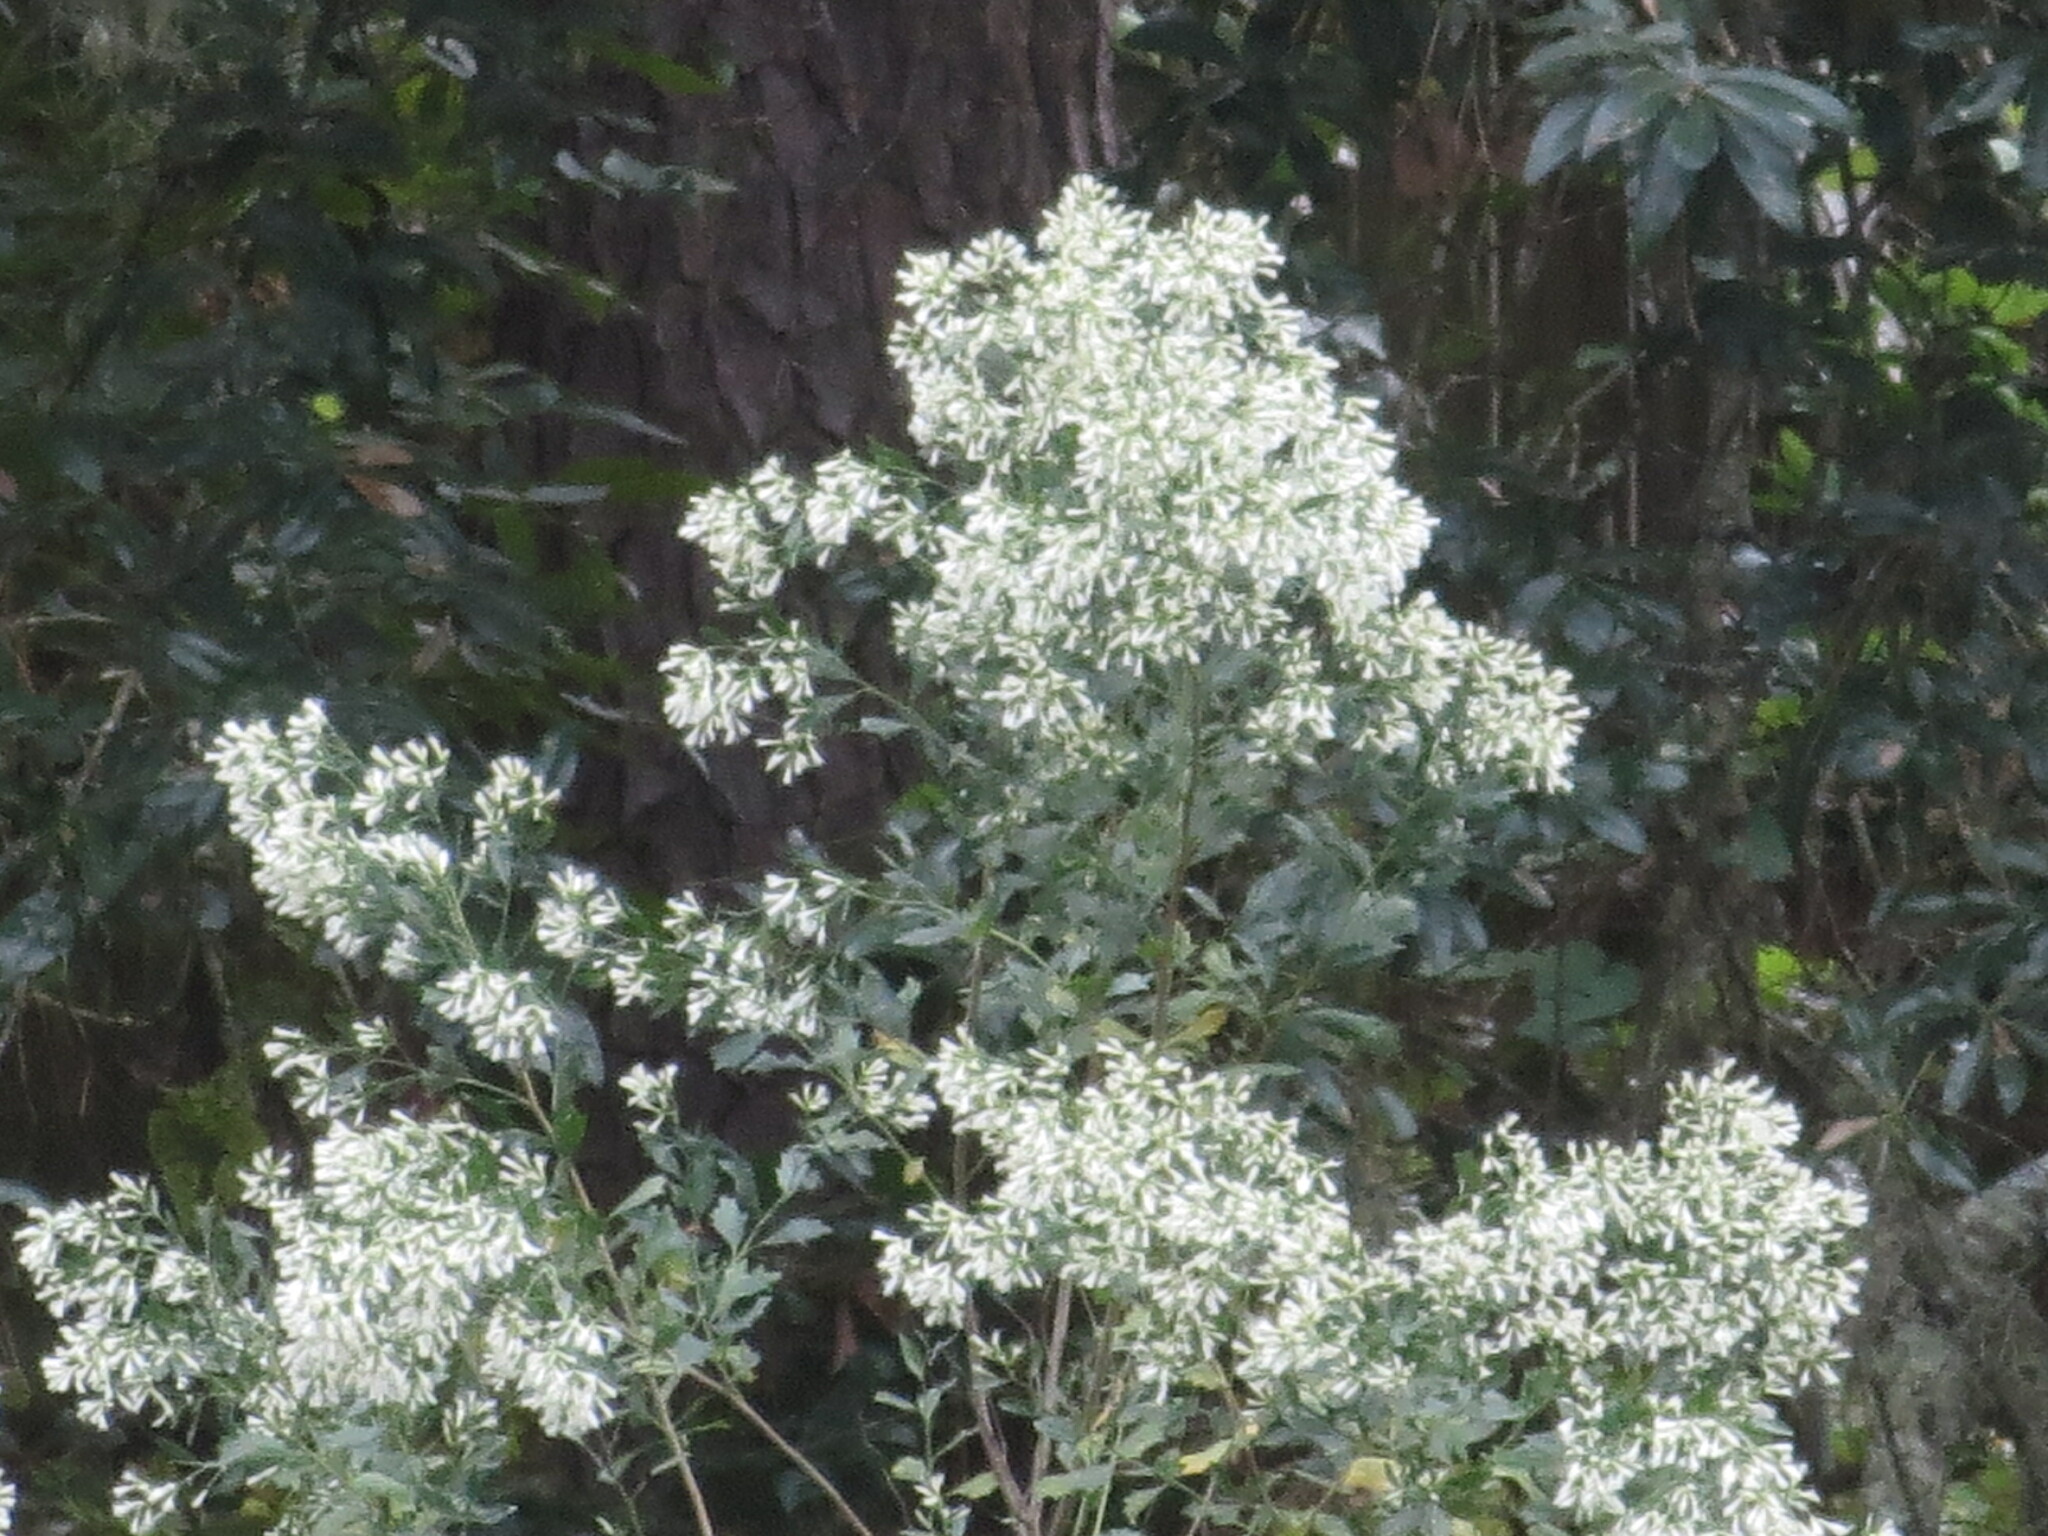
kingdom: Plantae
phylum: Tracheophyta
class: Magnoliopsida
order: Asterales
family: Asteraceae
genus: Baccharis
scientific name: Baccharis halimifolia
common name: Eastern baccharis
